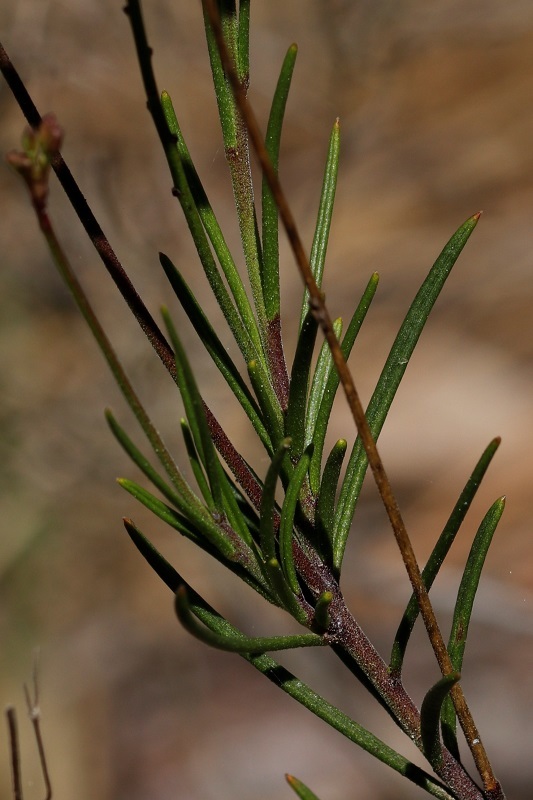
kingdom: Plantae
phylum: Tracheophyta
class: Magnoliopsida
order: Brassicales
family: Brassicaceae
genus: Heliophila
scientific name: Heliophila subulata
